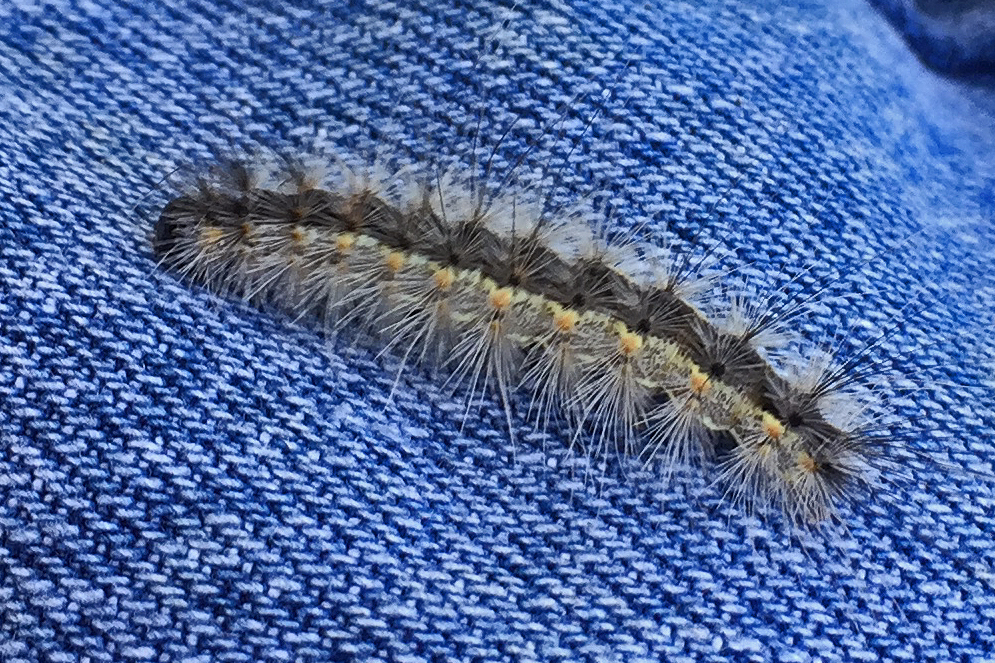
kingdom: Animalia
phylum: Arthropoda
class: Insecta
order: Lepidoptera
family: Erebidae
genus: Hyphantria
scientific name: Hyphantria cunea
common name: American white moth
